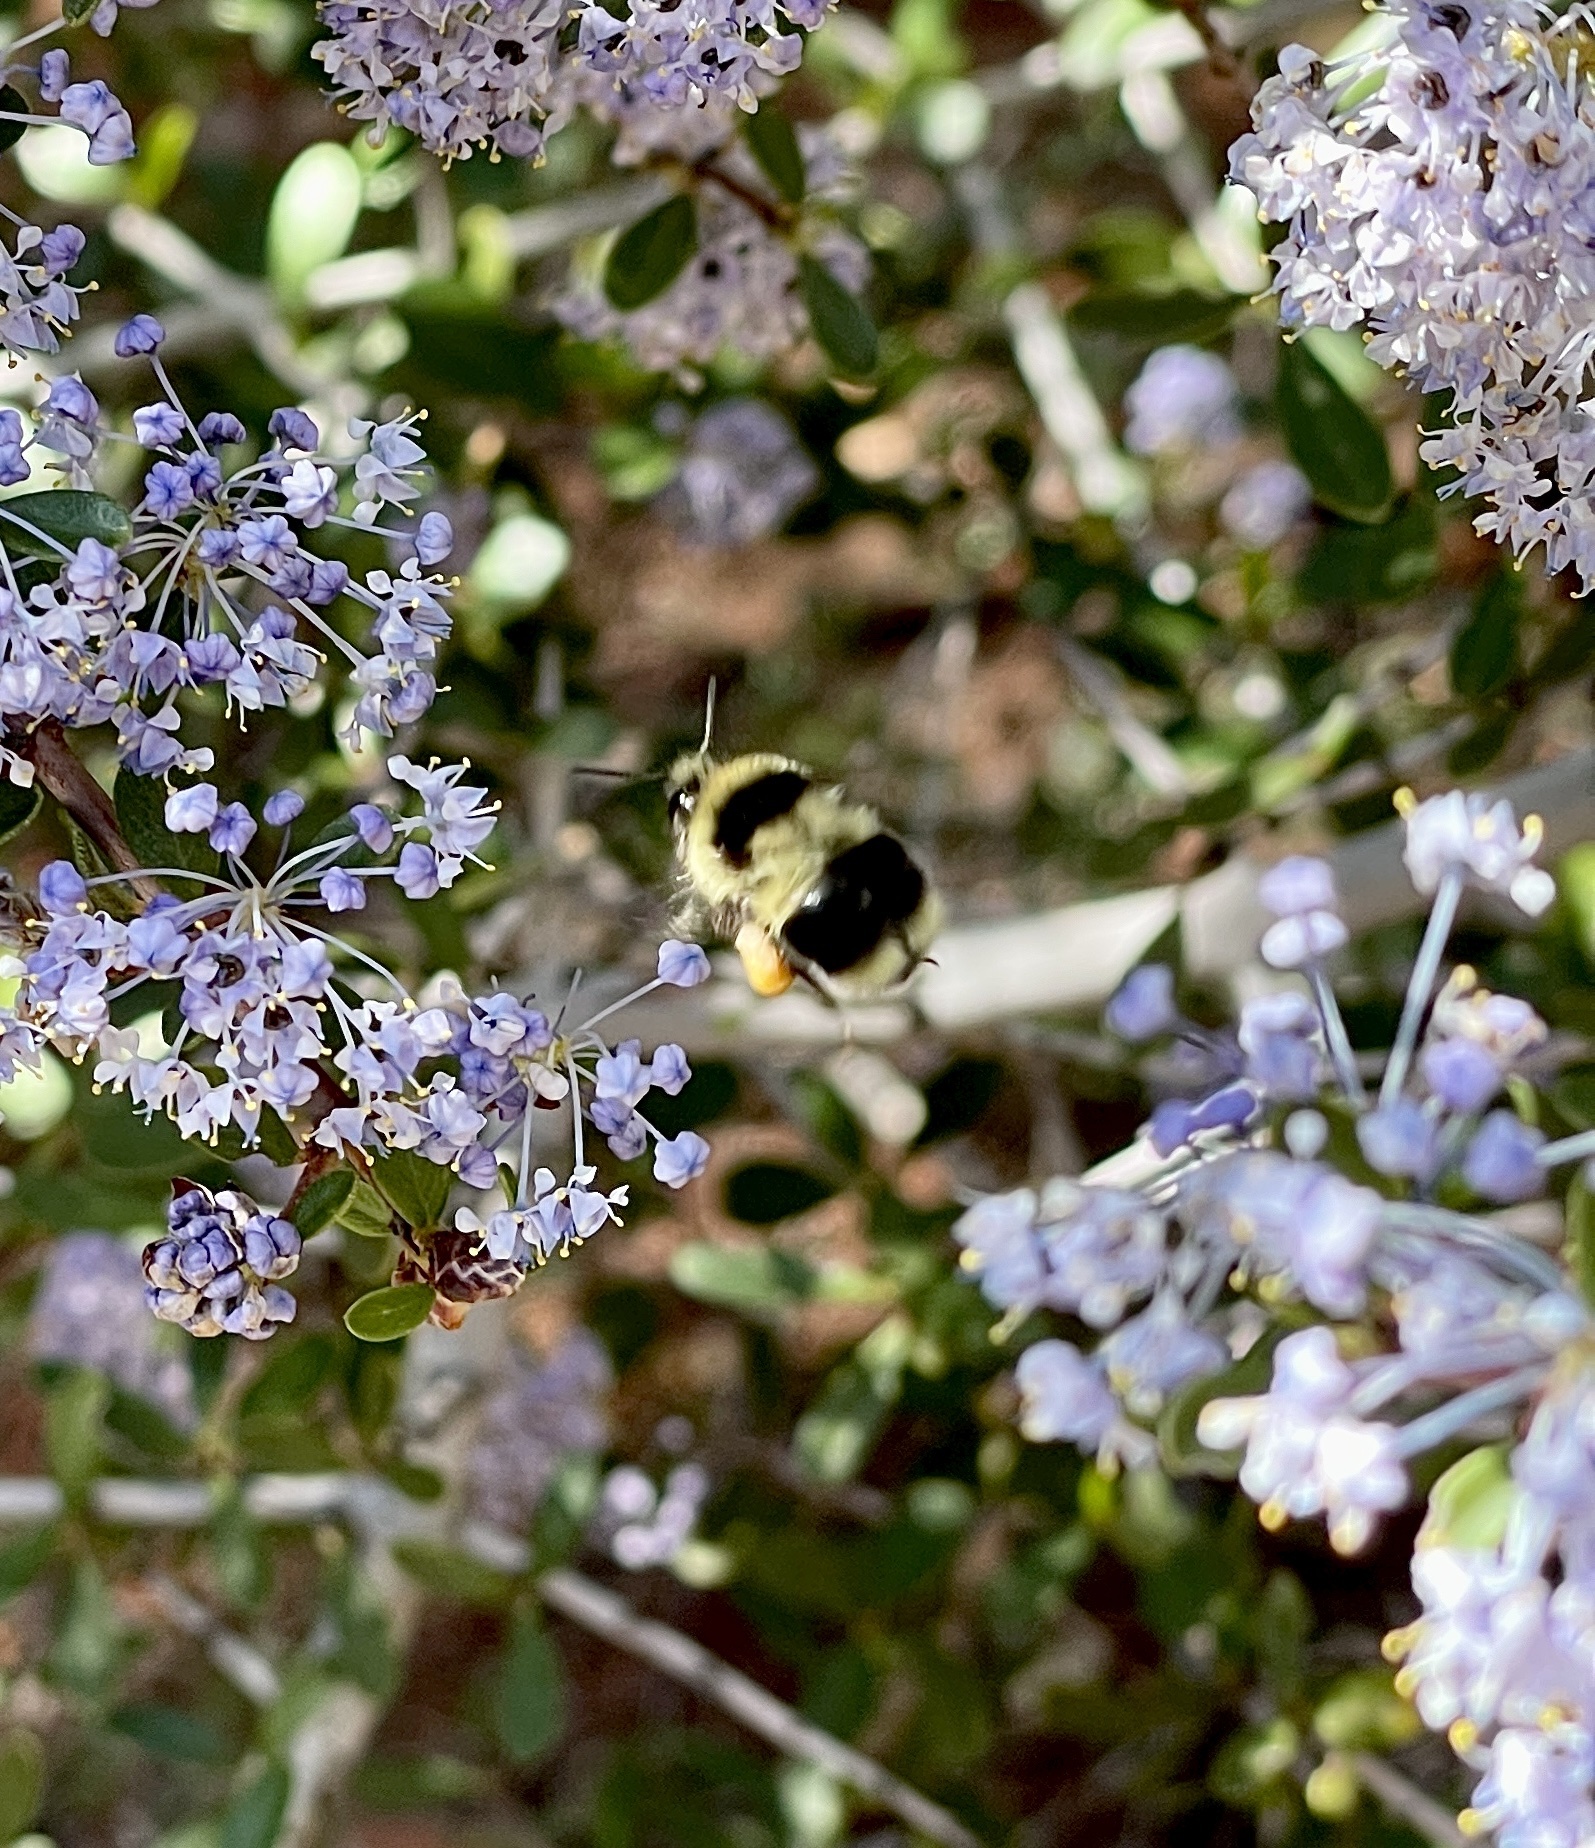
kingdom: Animalia
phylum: Arthropoda
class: Insecta
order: Hymenoptera
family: Apidae
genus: Bombus
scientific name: Bombus melanopygus
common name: Black tail bumble bee
